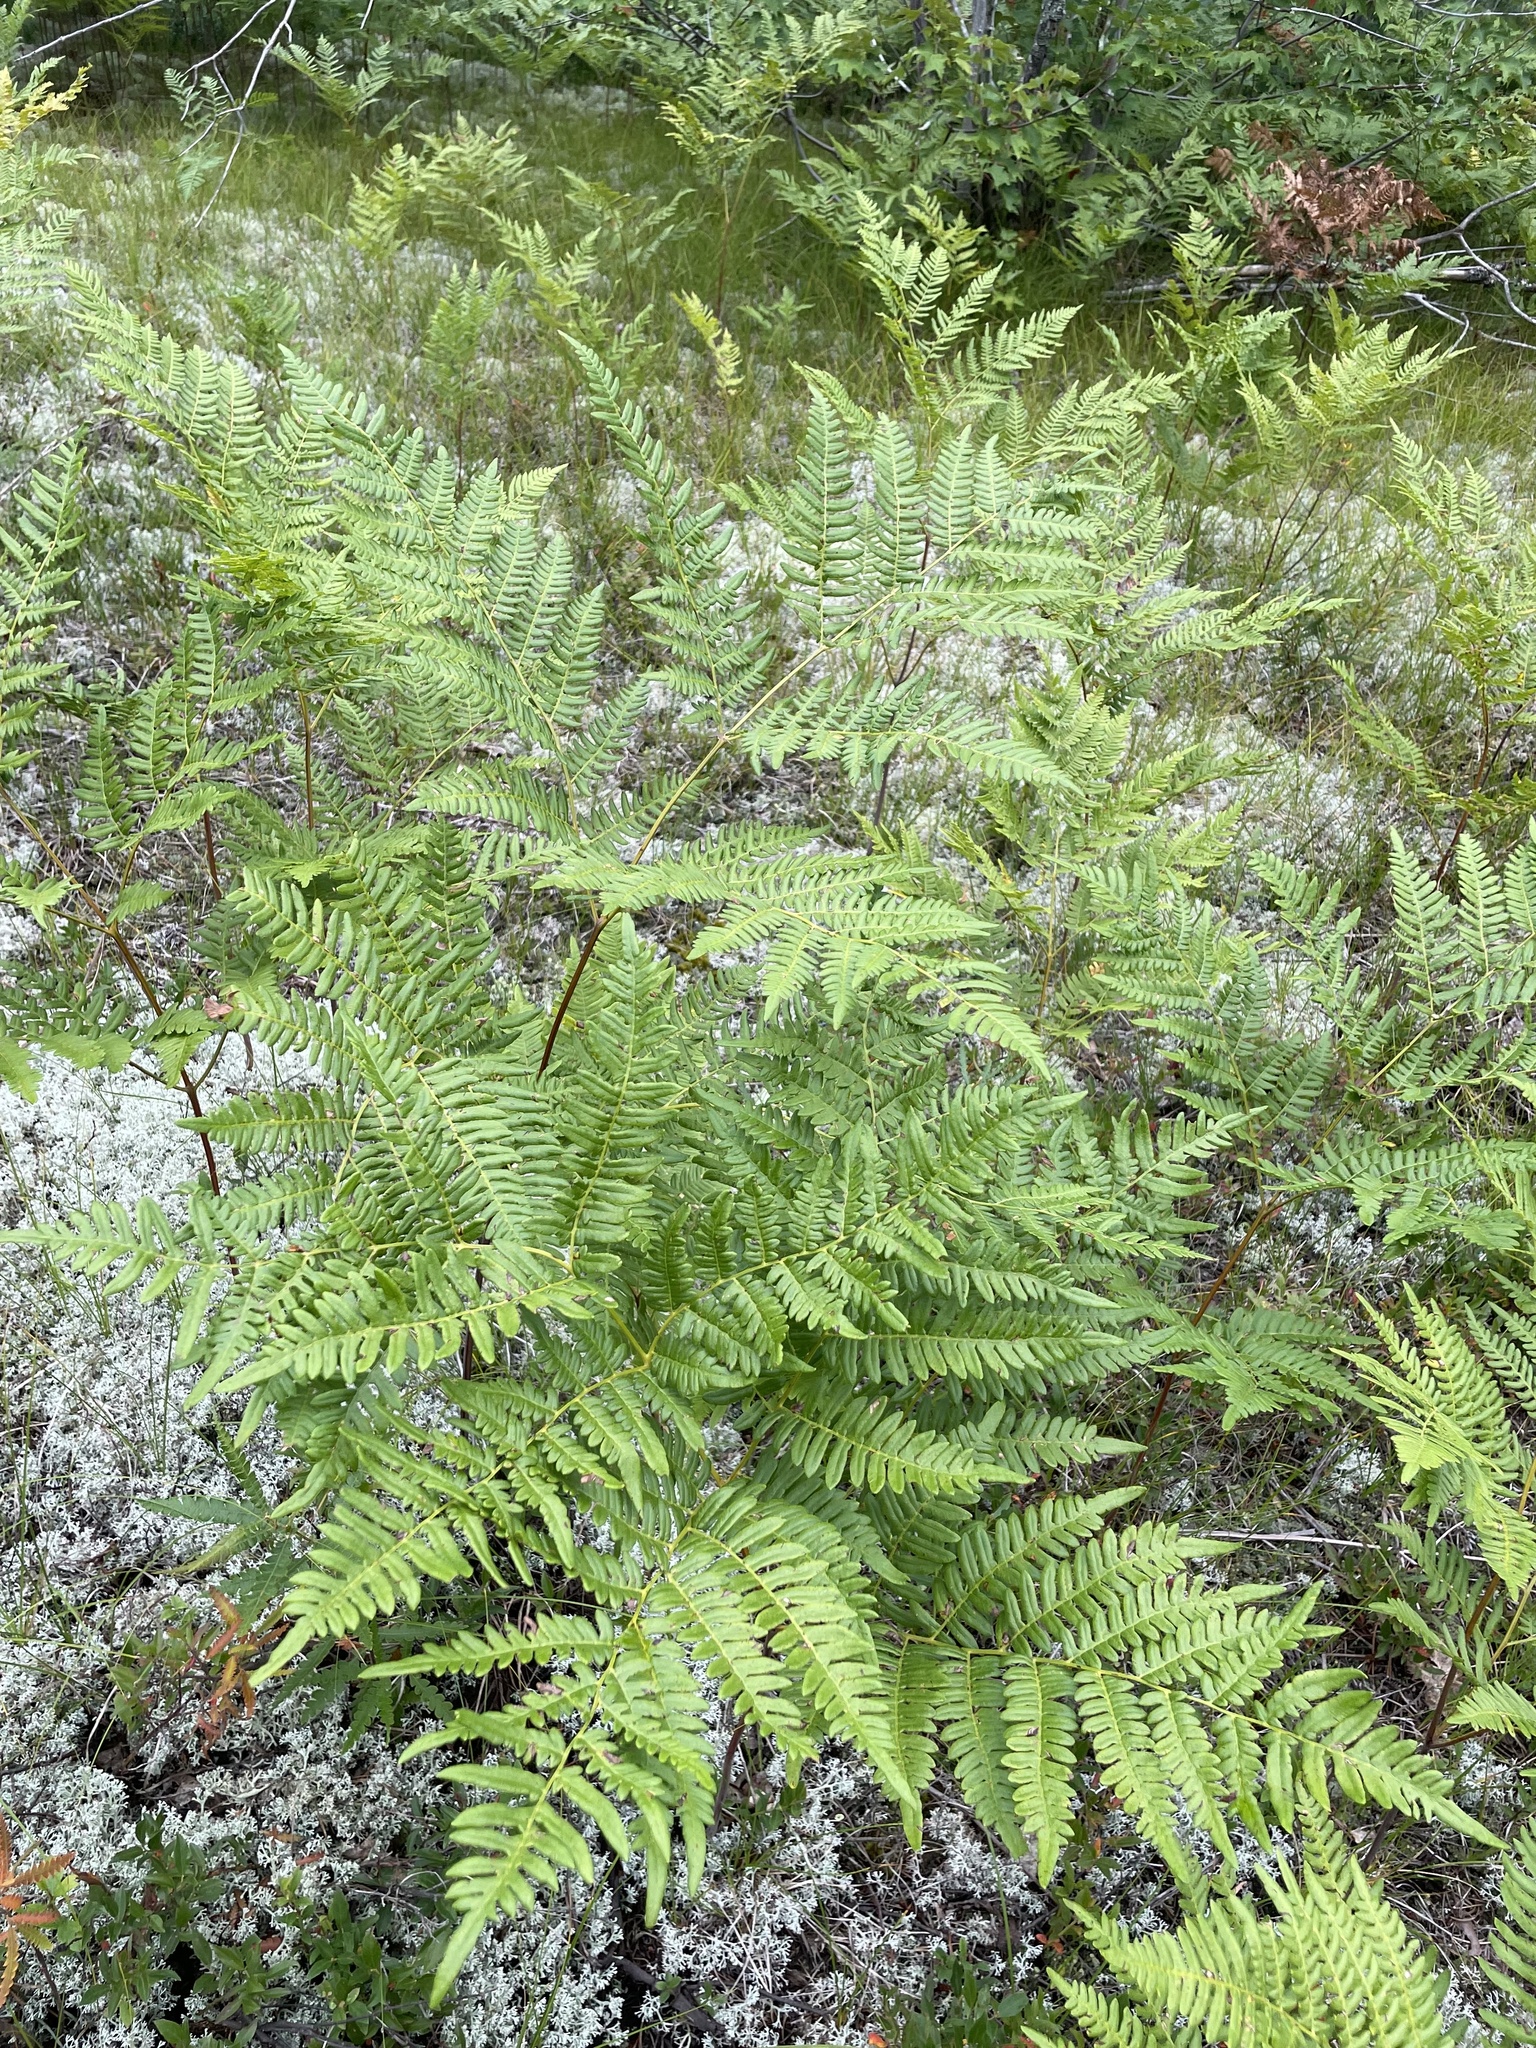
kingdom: Plantae
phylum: Tracheophyta
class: Polypodiopsida
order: Polypodiales
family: Dennstaedtiaceae
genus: Pteridium
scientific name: Pteridium aquilinum
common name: Bracken
